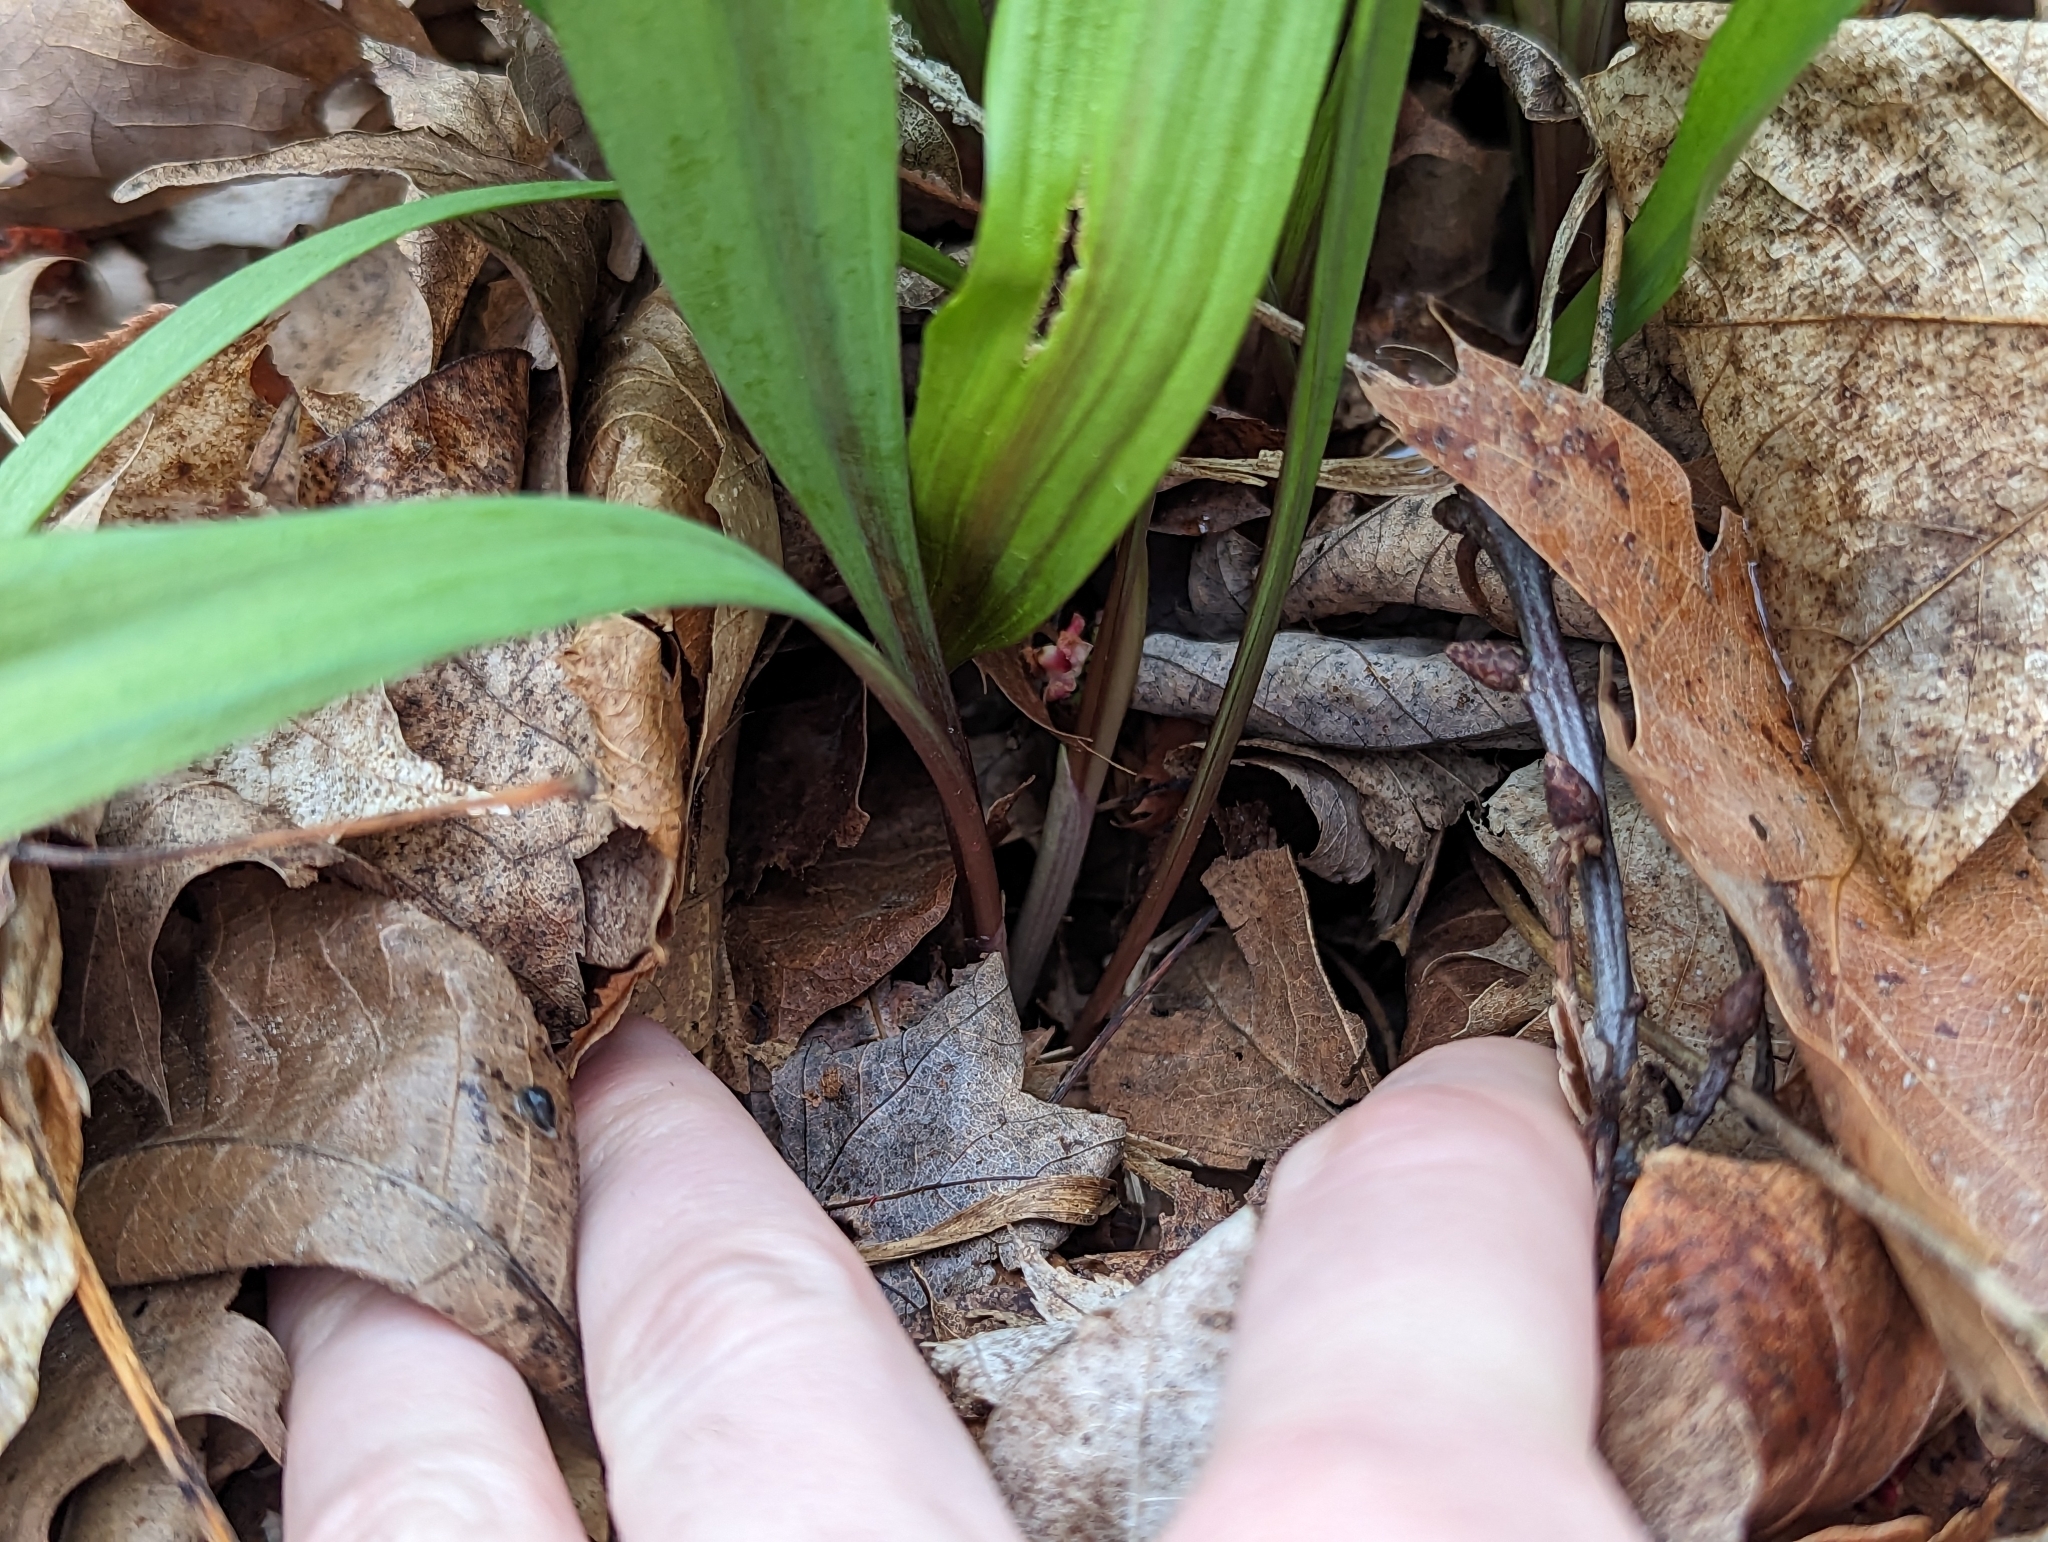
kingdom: Plantae
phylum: Tracheophyta
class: Liliopsida
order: Asparagales
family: Amaryllidaceae
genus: Allium
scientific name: Allium tricoccum
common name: Ramp
